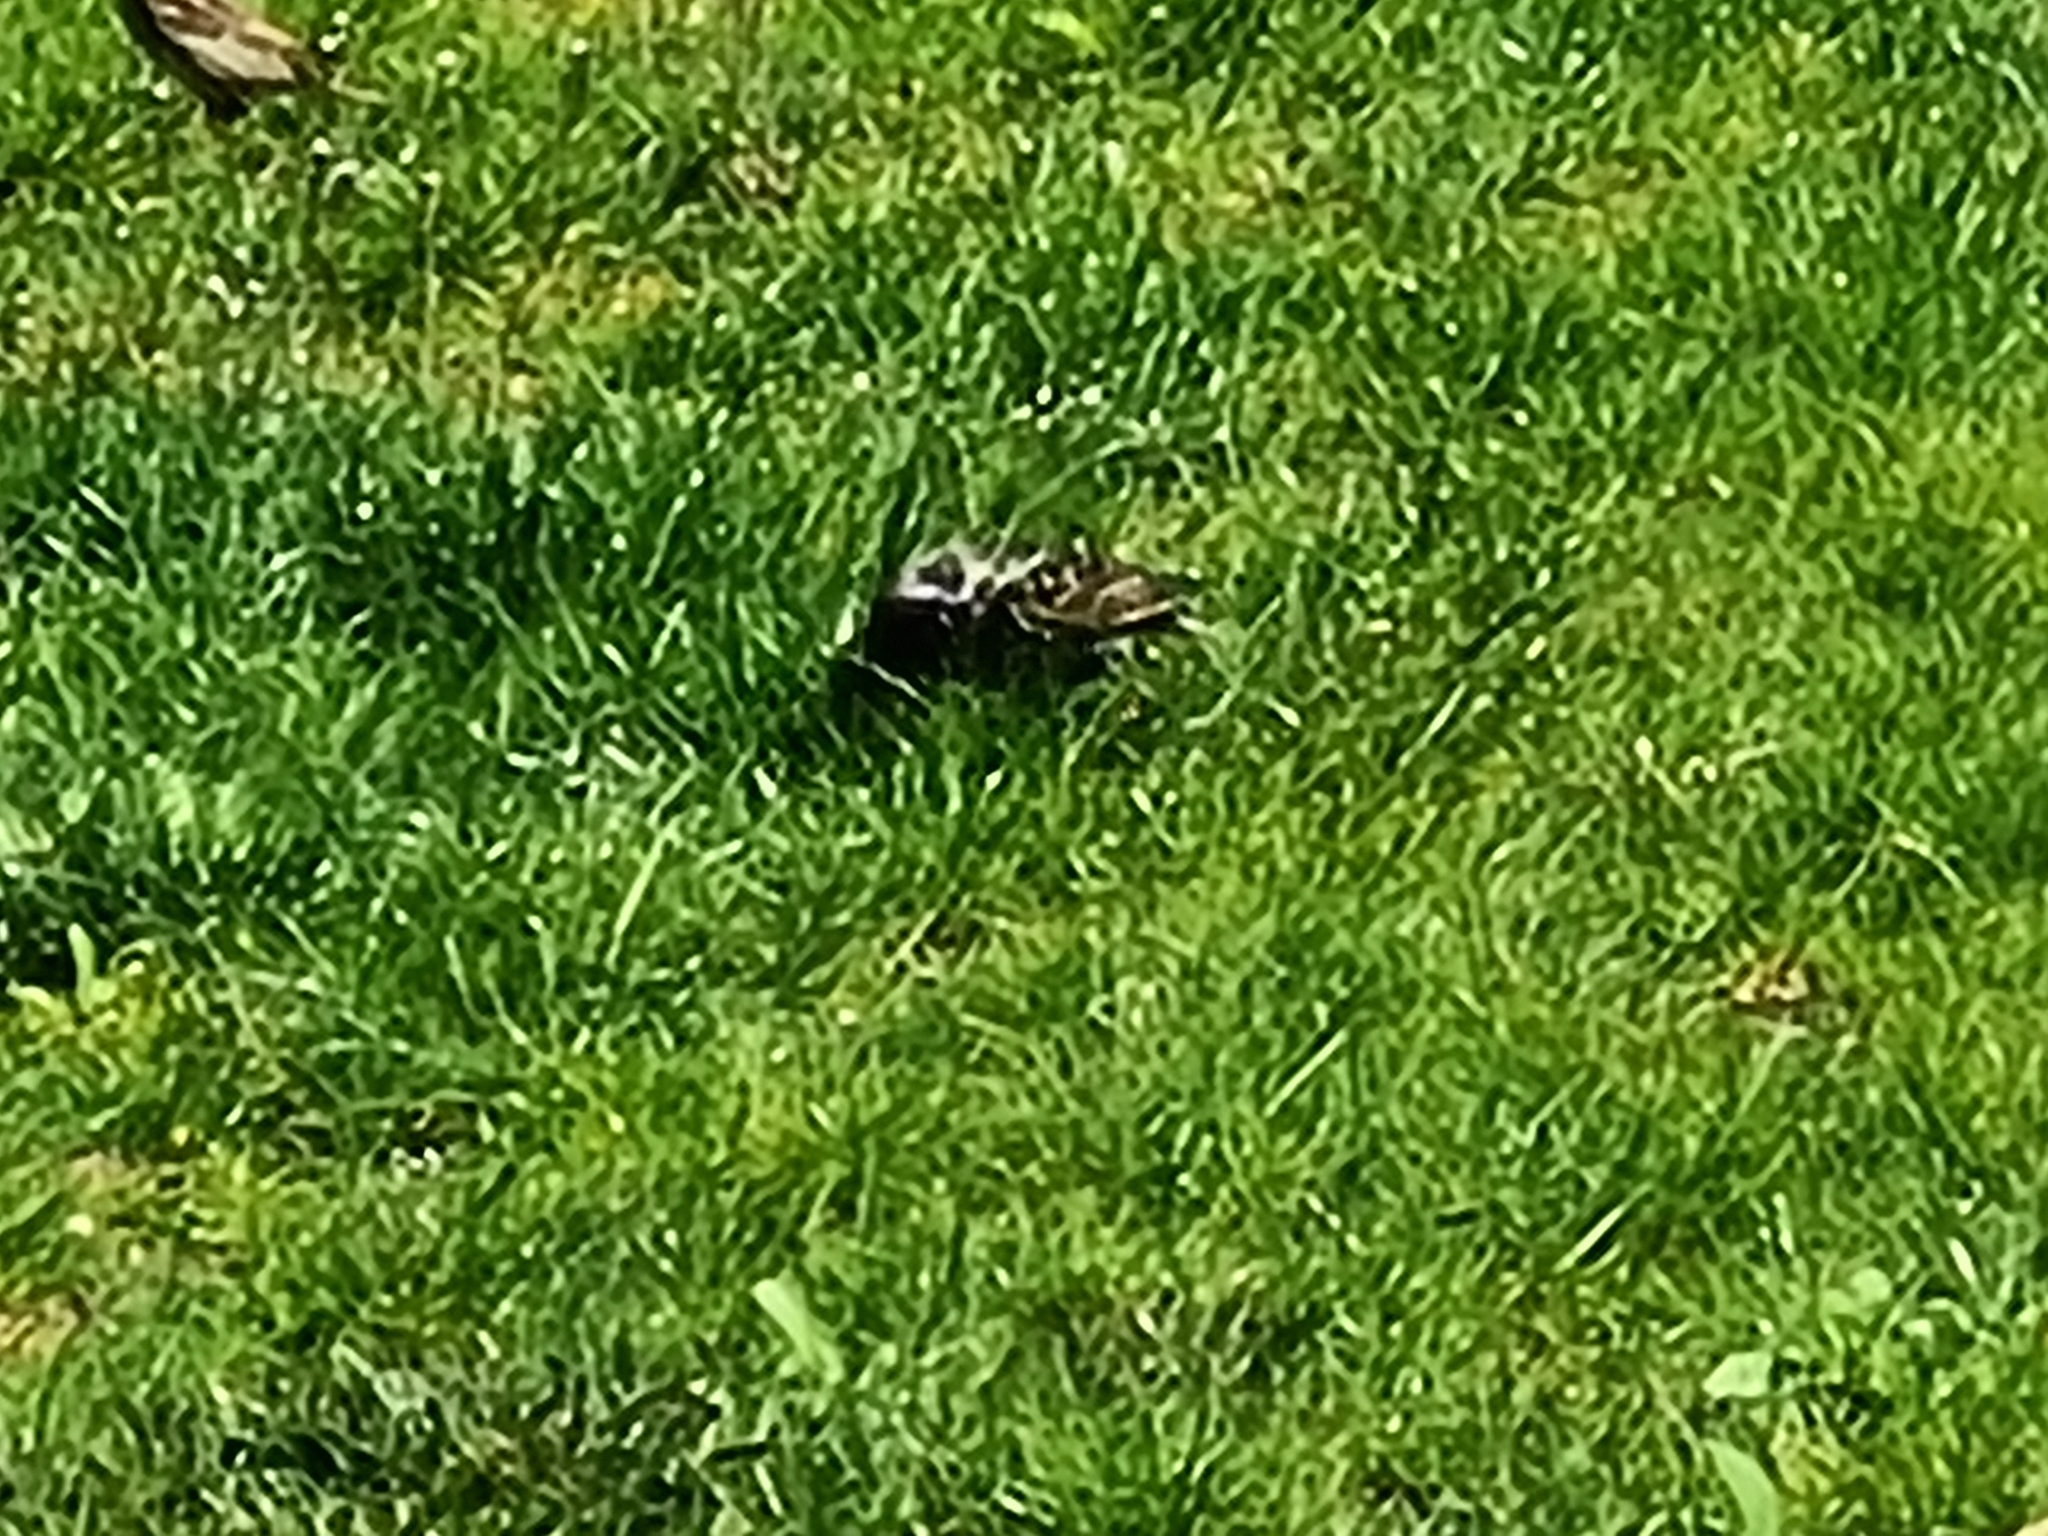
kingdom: Animalia
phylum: Chordata
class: Aves
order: Passeriformes
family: Sturnidae
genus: Sturnus
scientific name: Sturnus vulgaris
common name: Common starling
